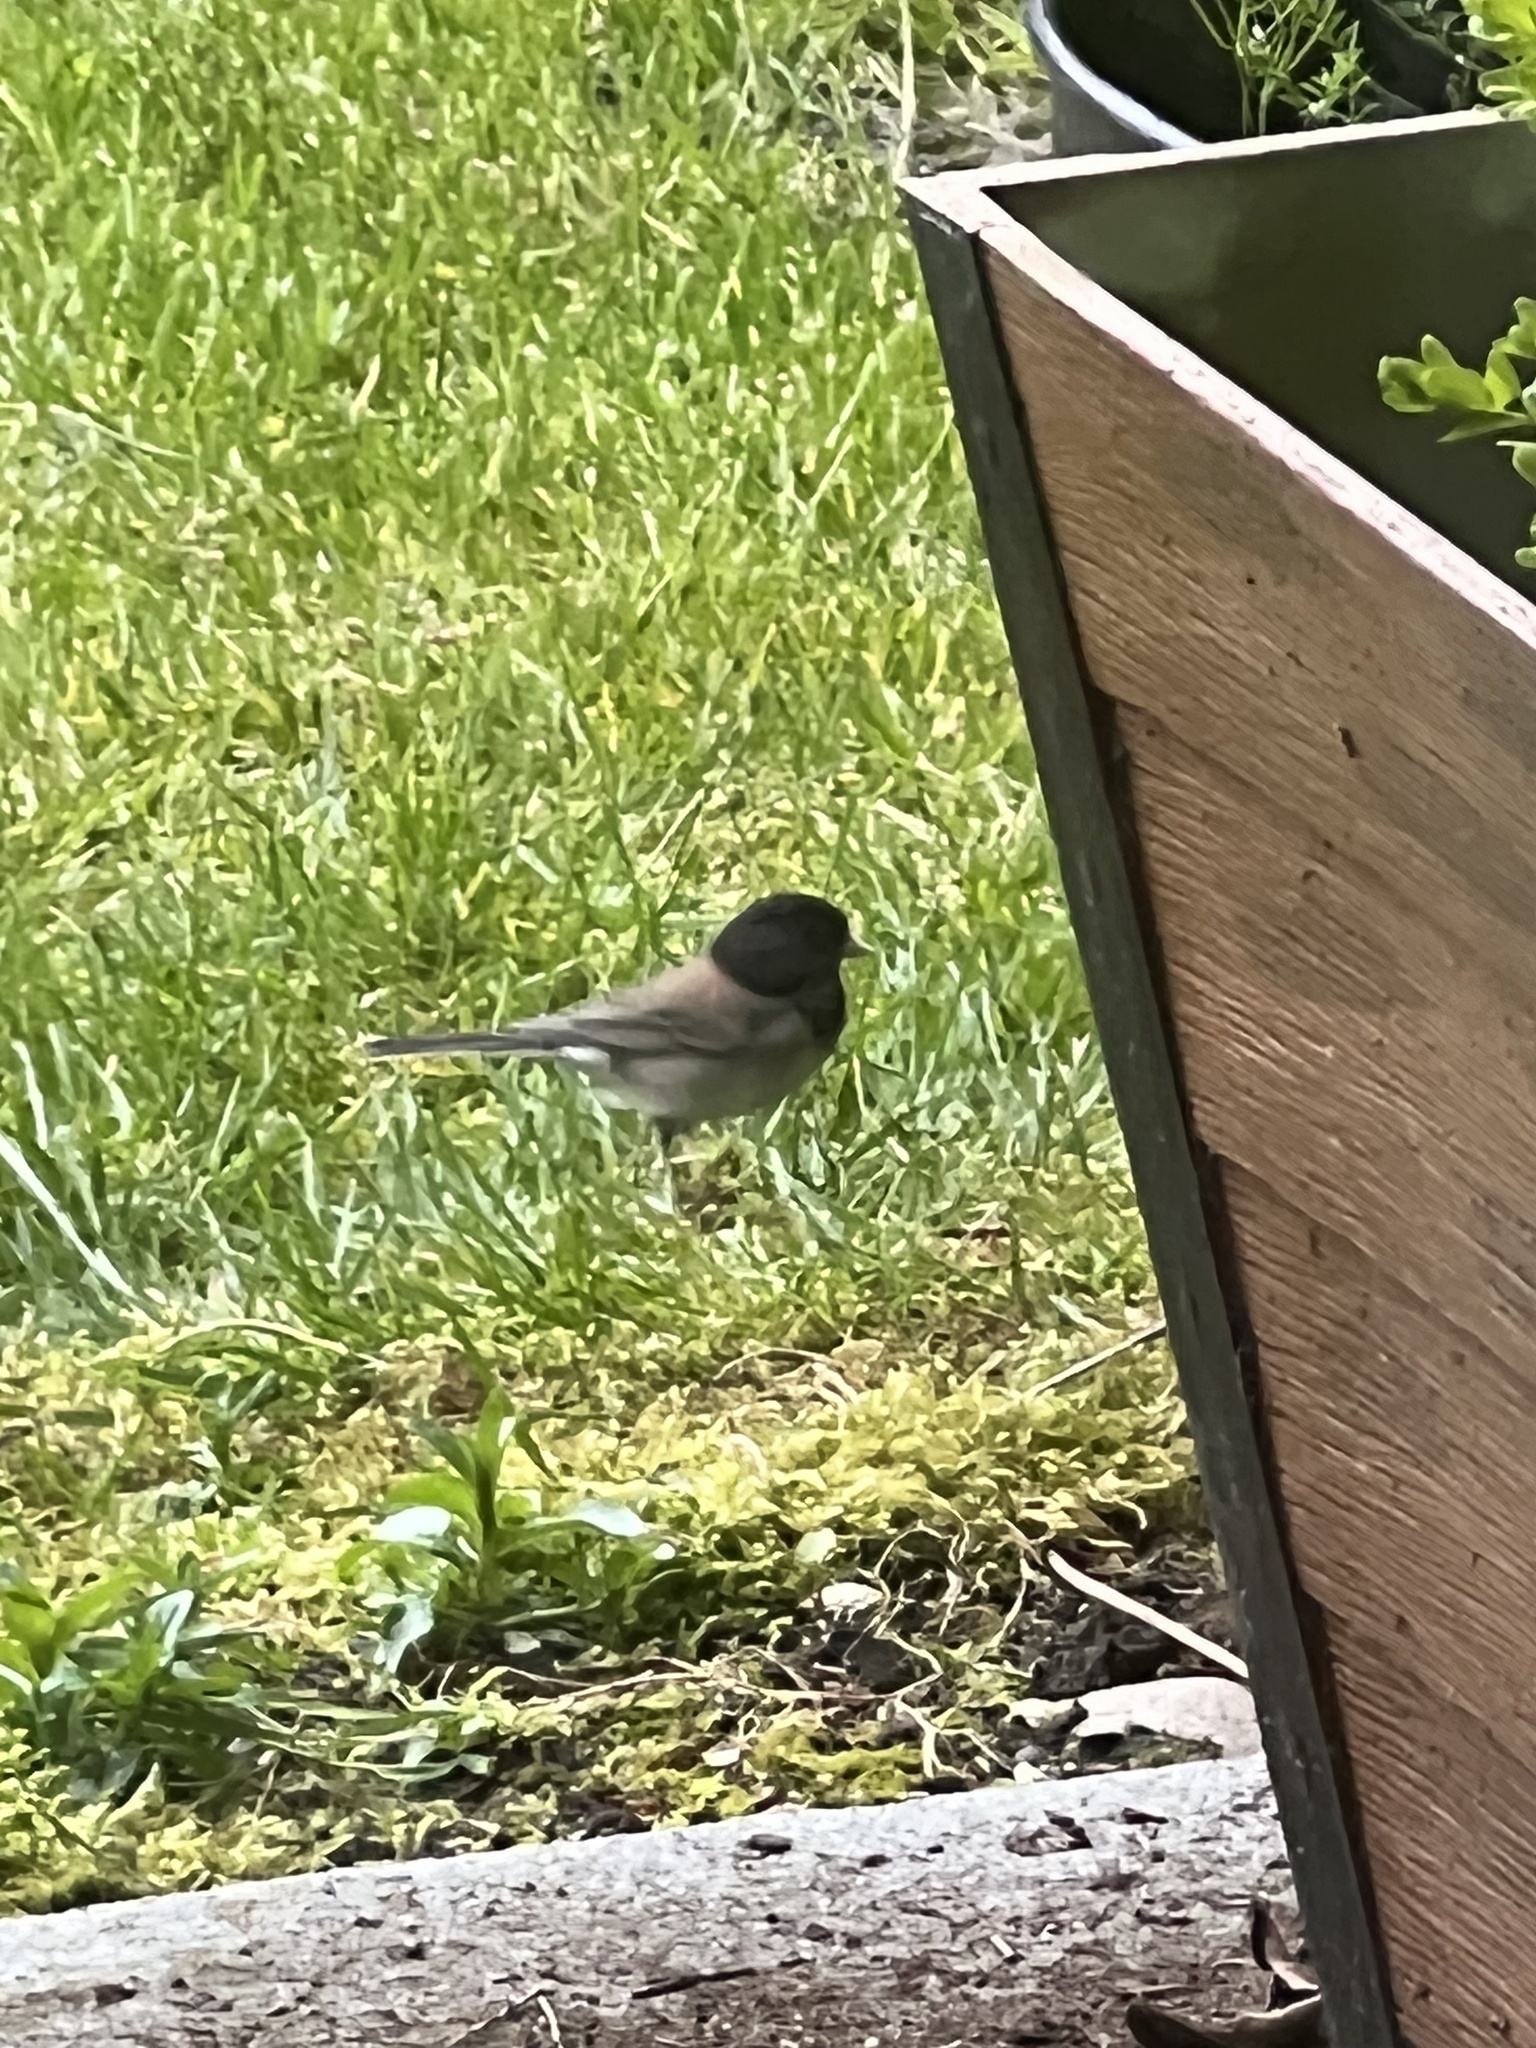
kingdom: Animalia
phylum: Chordata
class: Aves
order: Passeriformes
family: Passerellidae
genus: Junco
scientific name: Junco hyemalis
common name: Dark-eyed junco
